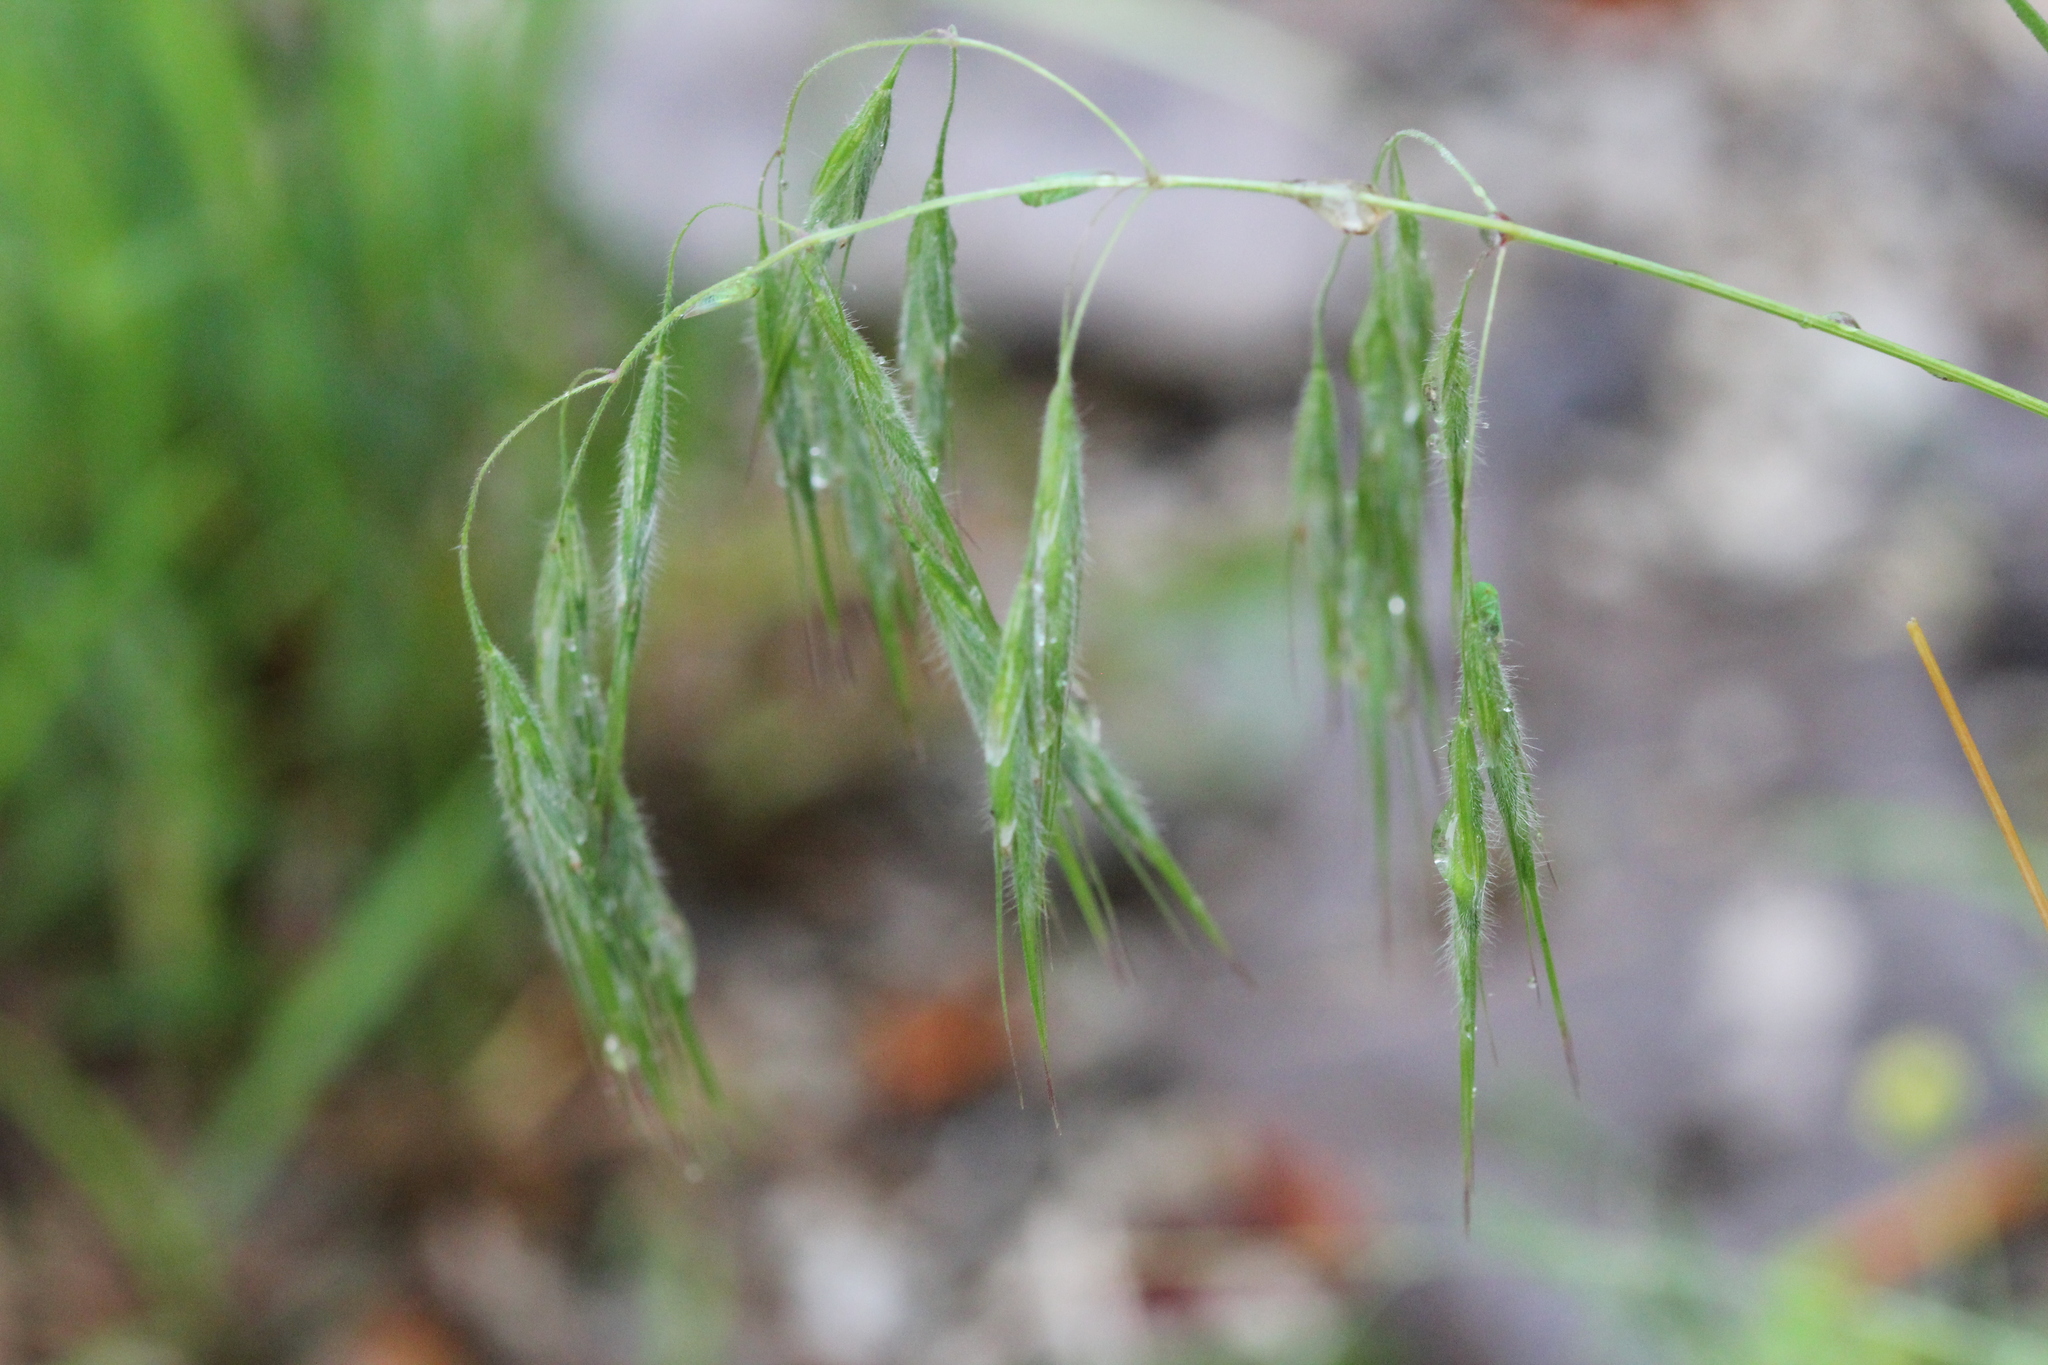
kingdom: Plantae
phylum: Tracheophyta
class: Liliopsida
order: Poales
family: Poaceae
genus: Bromus
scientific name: Bromus tectorum
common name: Cheatgrass
